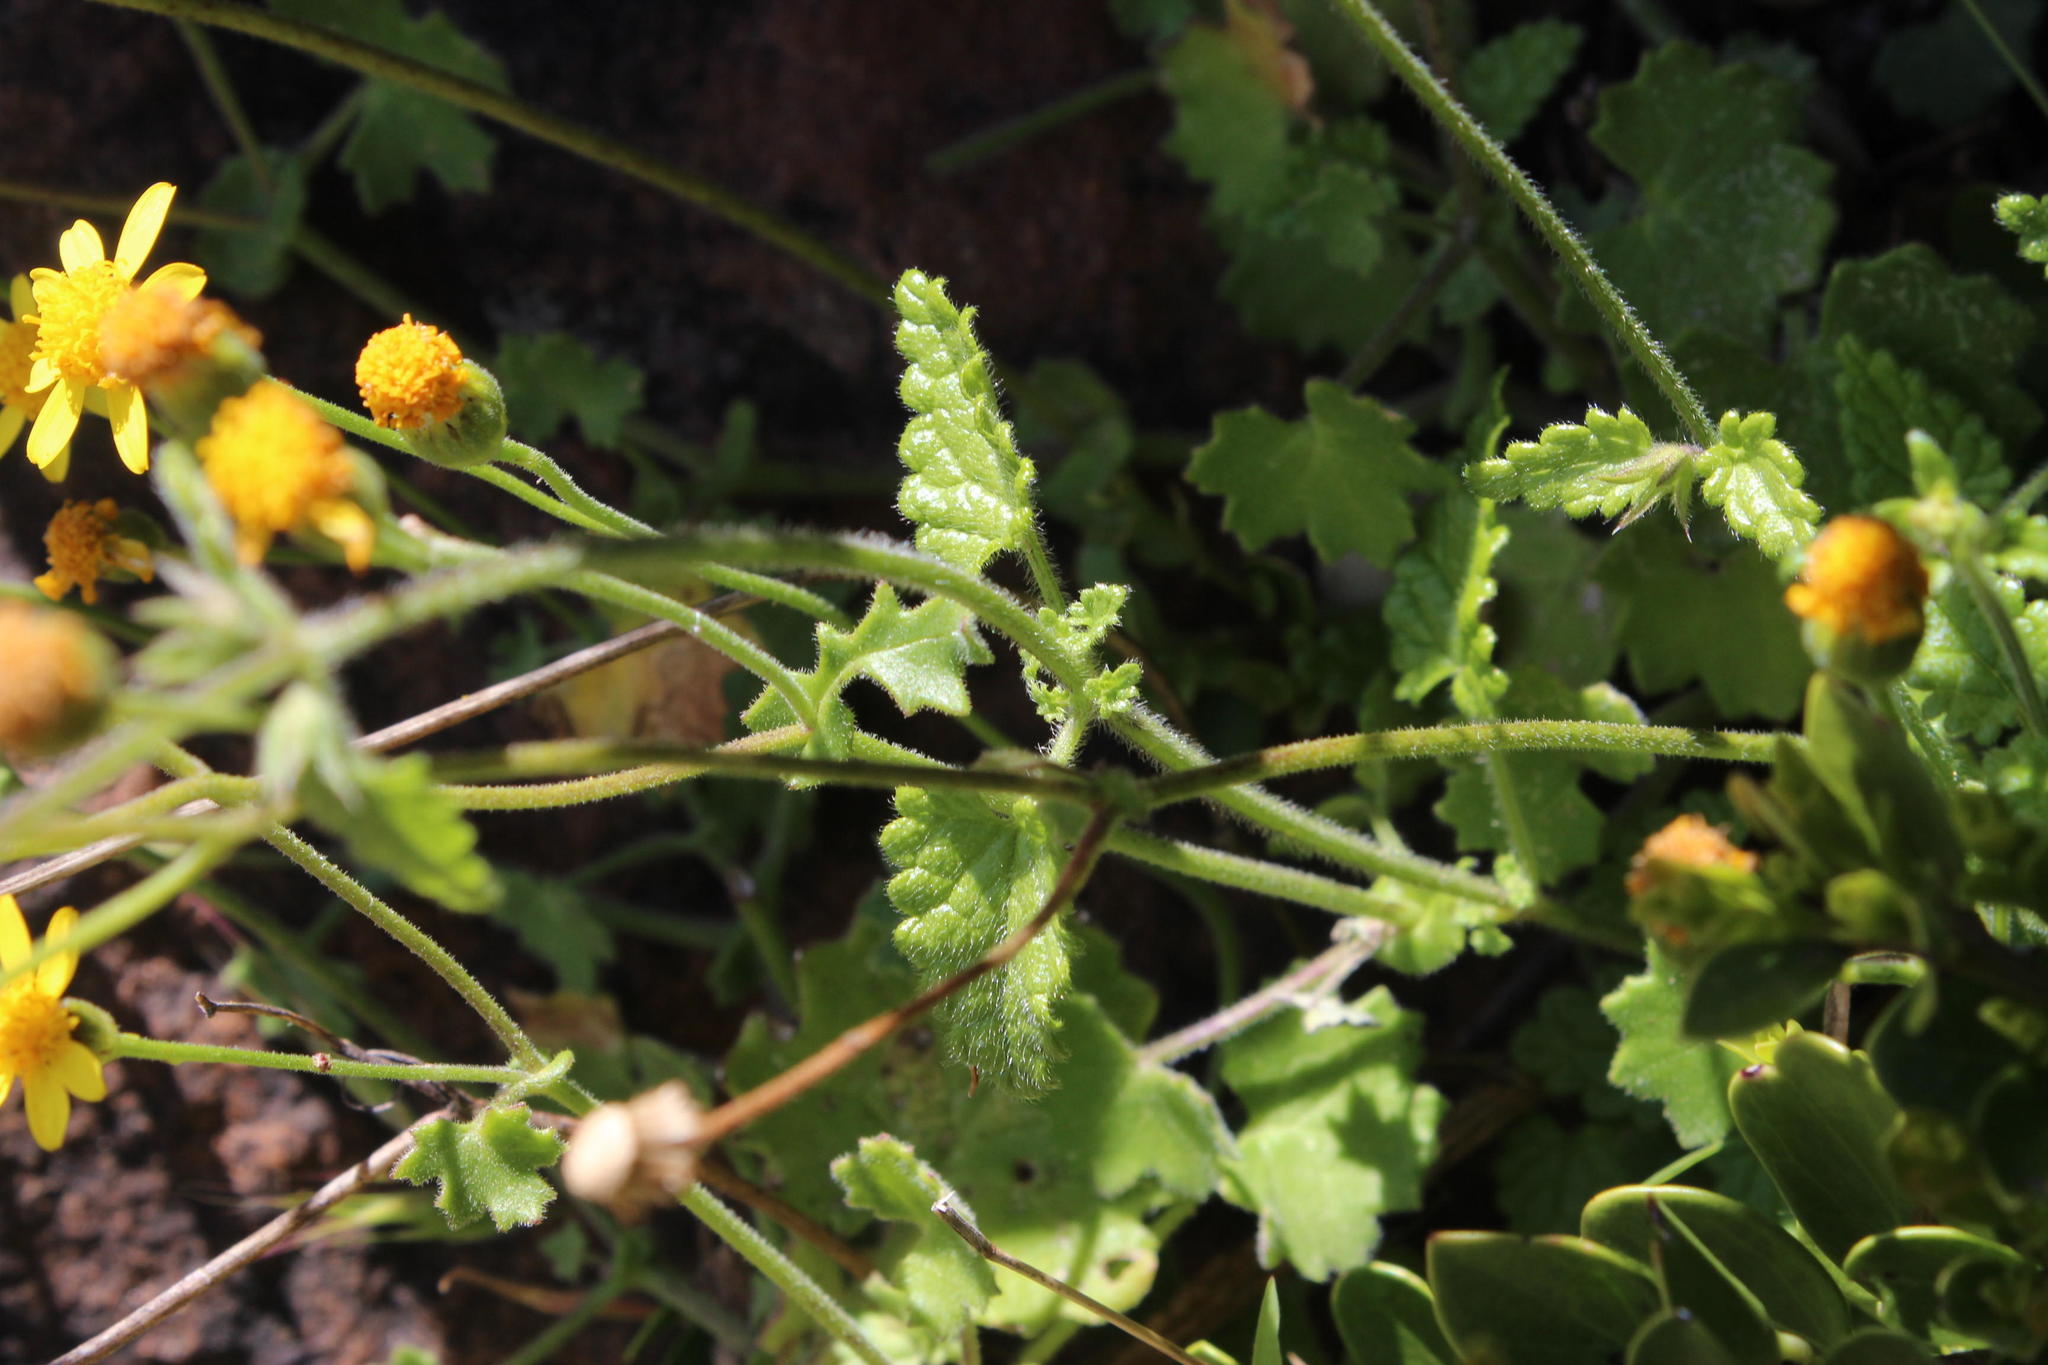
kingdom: Plantae
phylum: Tracheophyta
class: Magnoliopsida
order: Lamiales
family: Lamiaceae
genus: Stachys
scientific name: Stachys aethiopica
